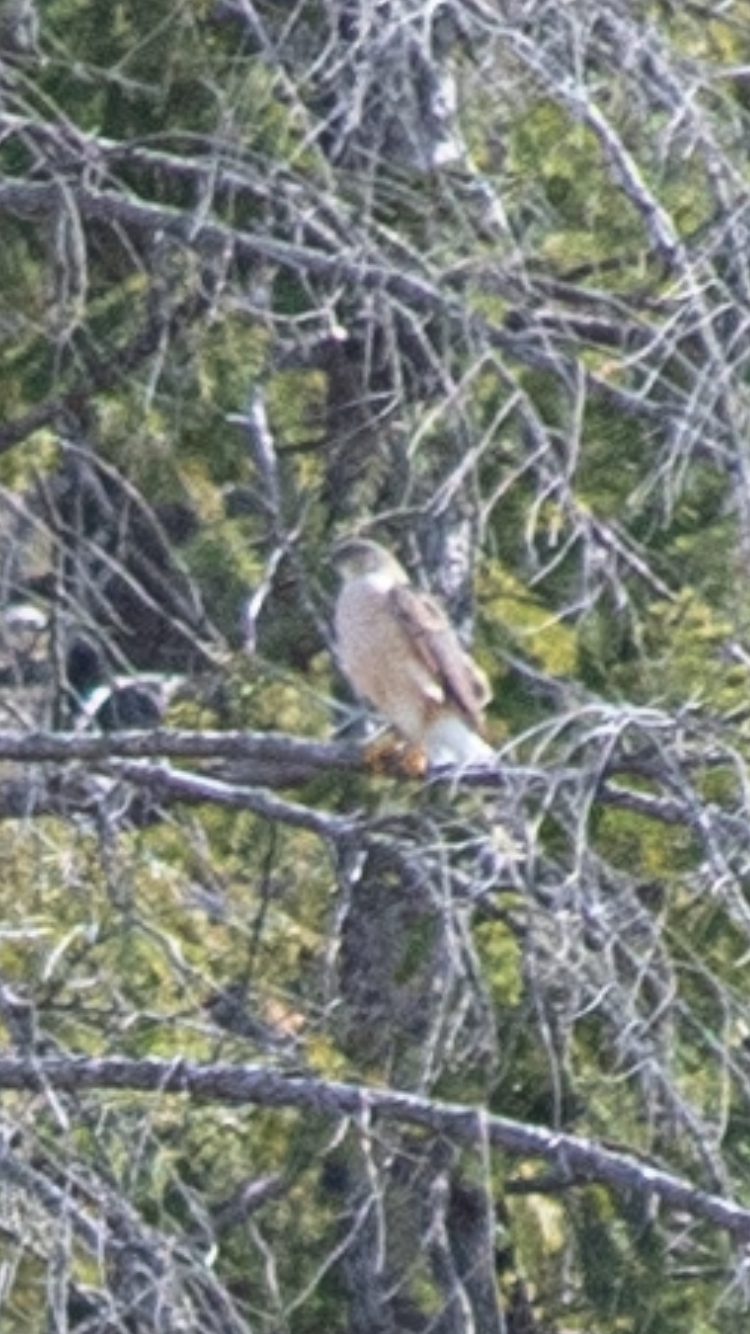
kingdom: Animalia
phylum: Chordata
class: Aves
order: Accipitriformes
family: Accipitridae
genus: Accipiter
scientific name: Accipiter striatus
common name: Sharp-shinned hawk
